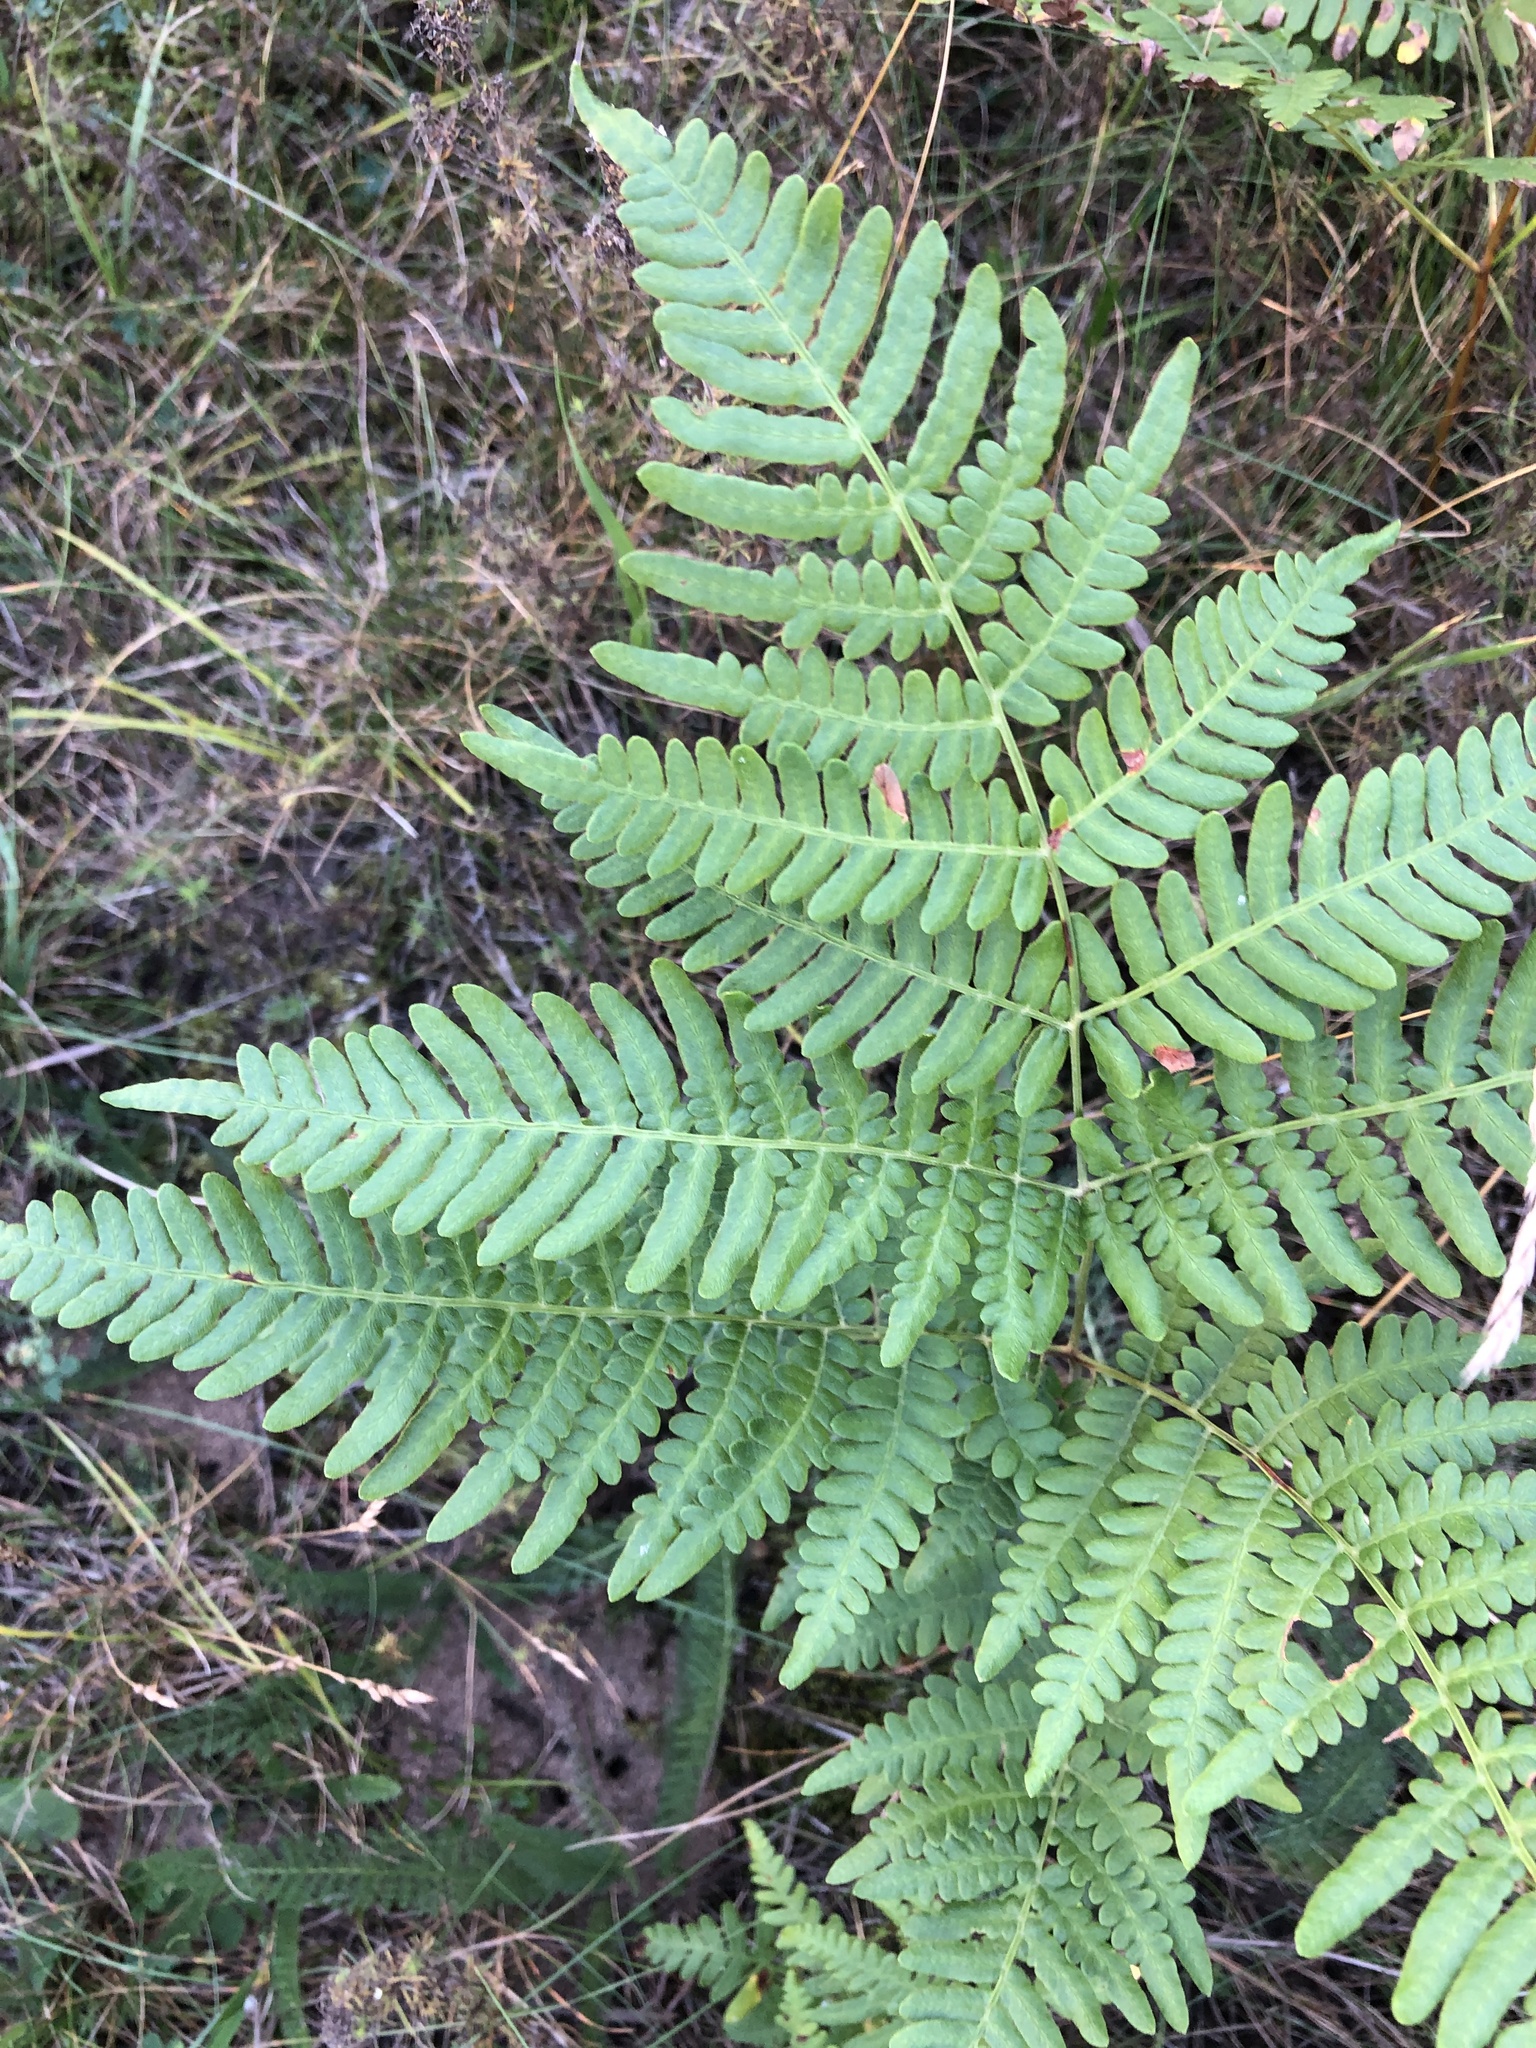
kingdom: Plantae
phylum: Tracheophyta
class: Polypodiopsida
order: Polypodiales
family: Dennstaedtiaceae
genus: Pteridium
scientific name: Pteridium aquilinum
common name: Bracken
